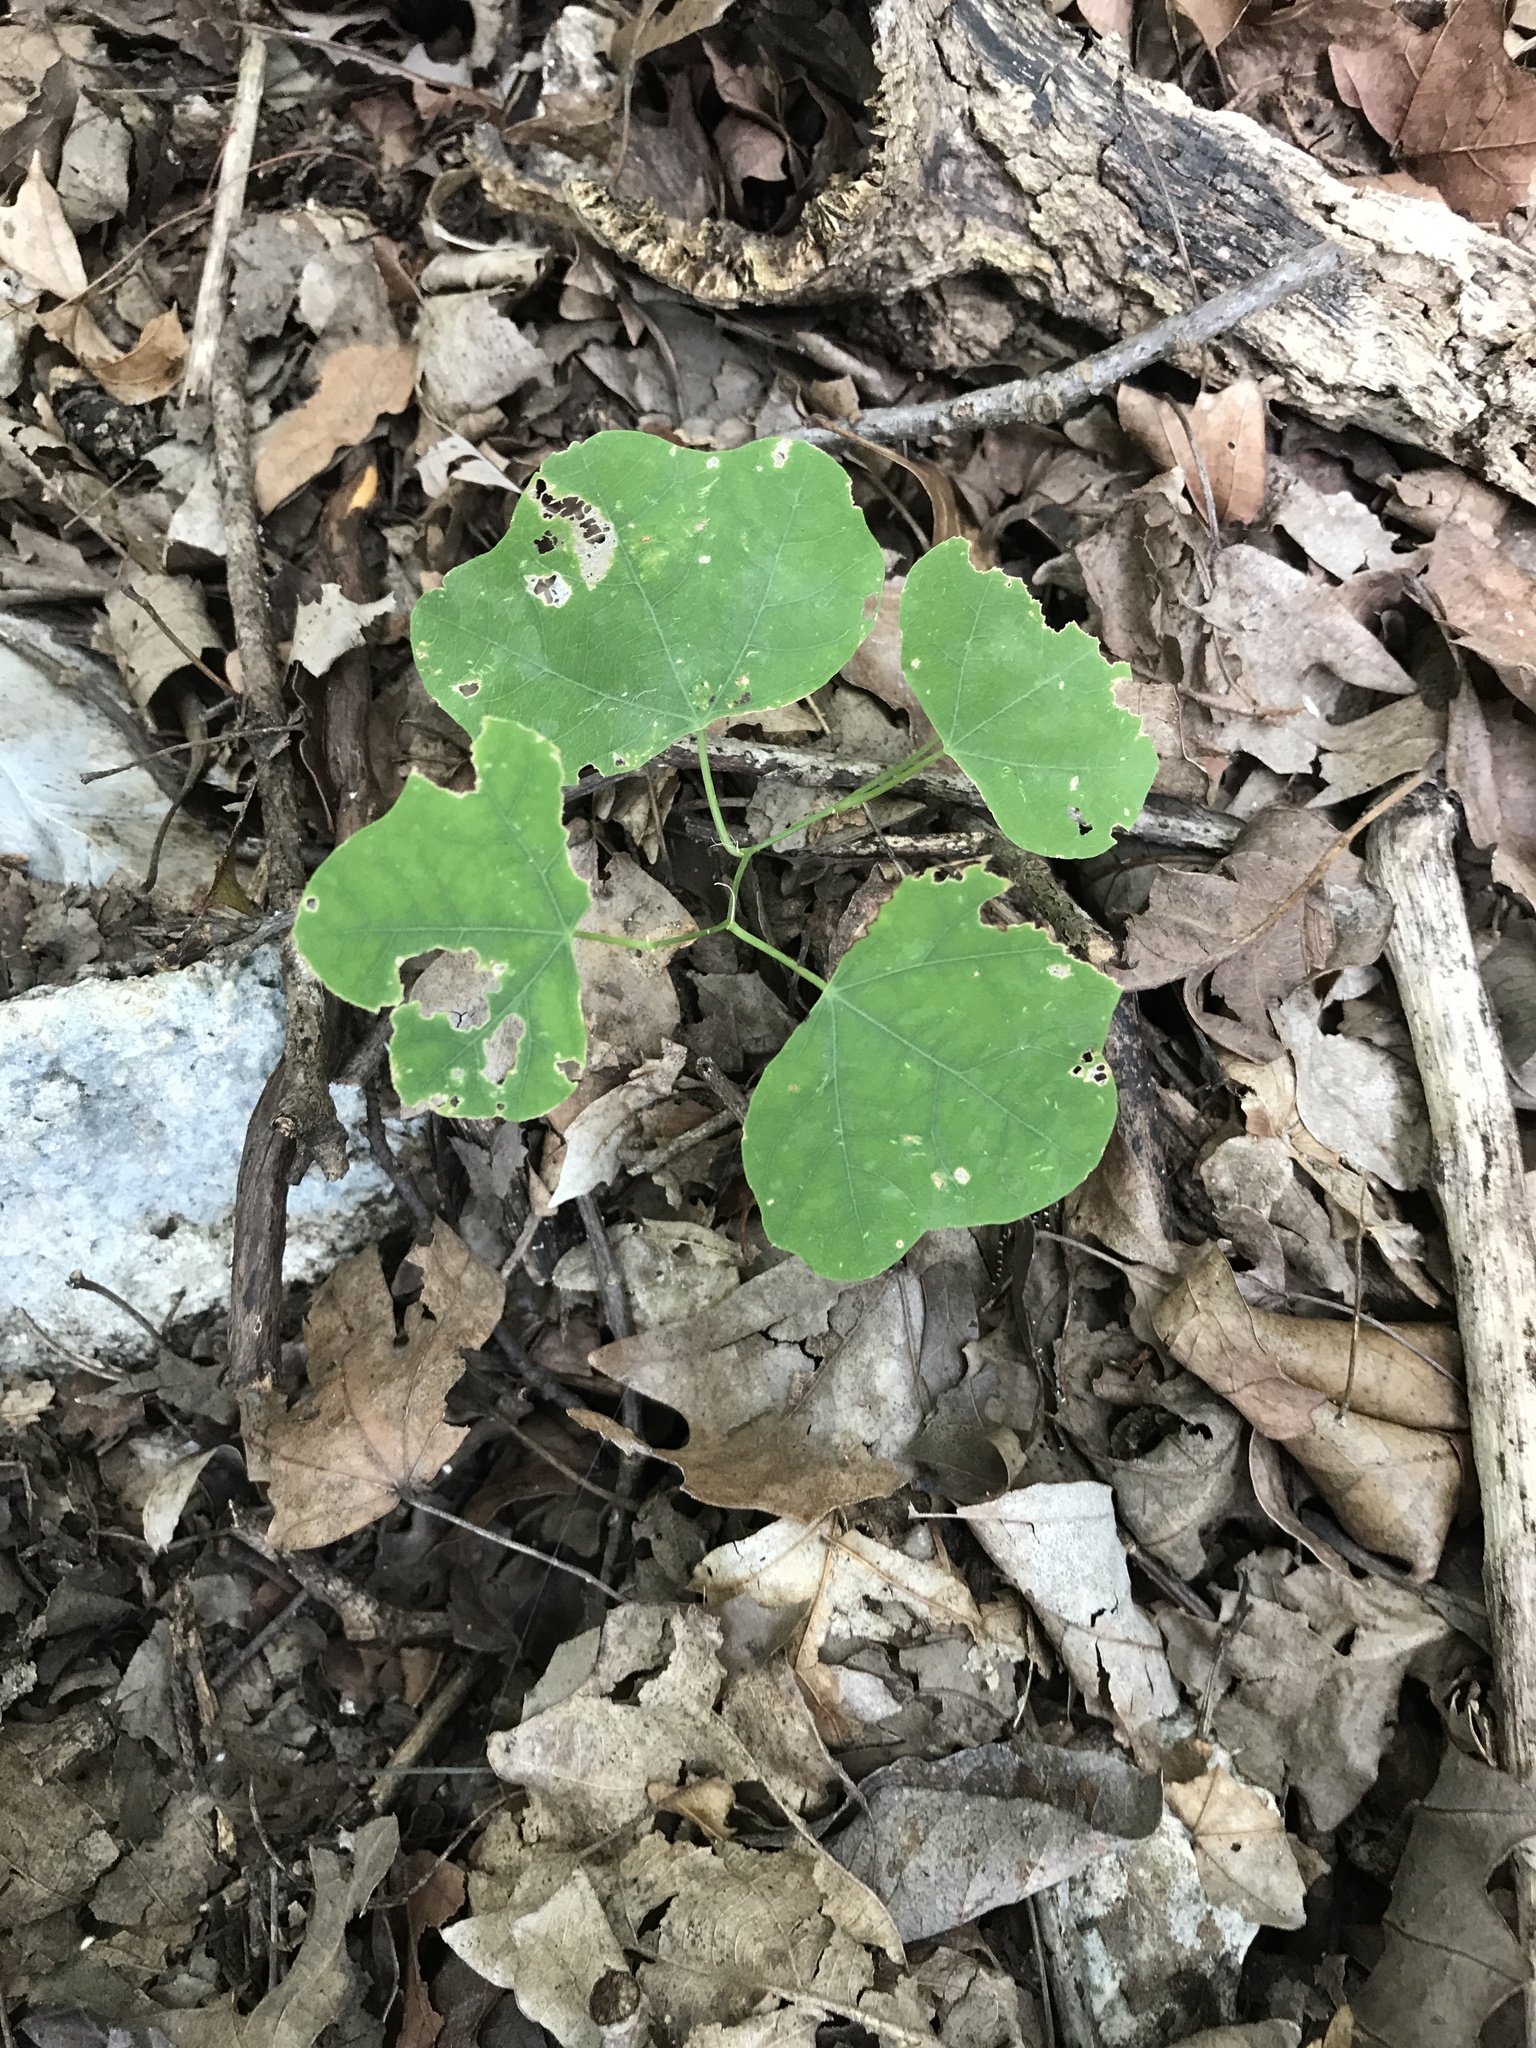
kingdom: Plantae
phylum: Tracheophyta
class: Magnoliopsida
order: Malpighiales
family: Passifloraceae
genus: Passiflora
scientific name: Passiflora lutea
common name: Yellow passionflower
